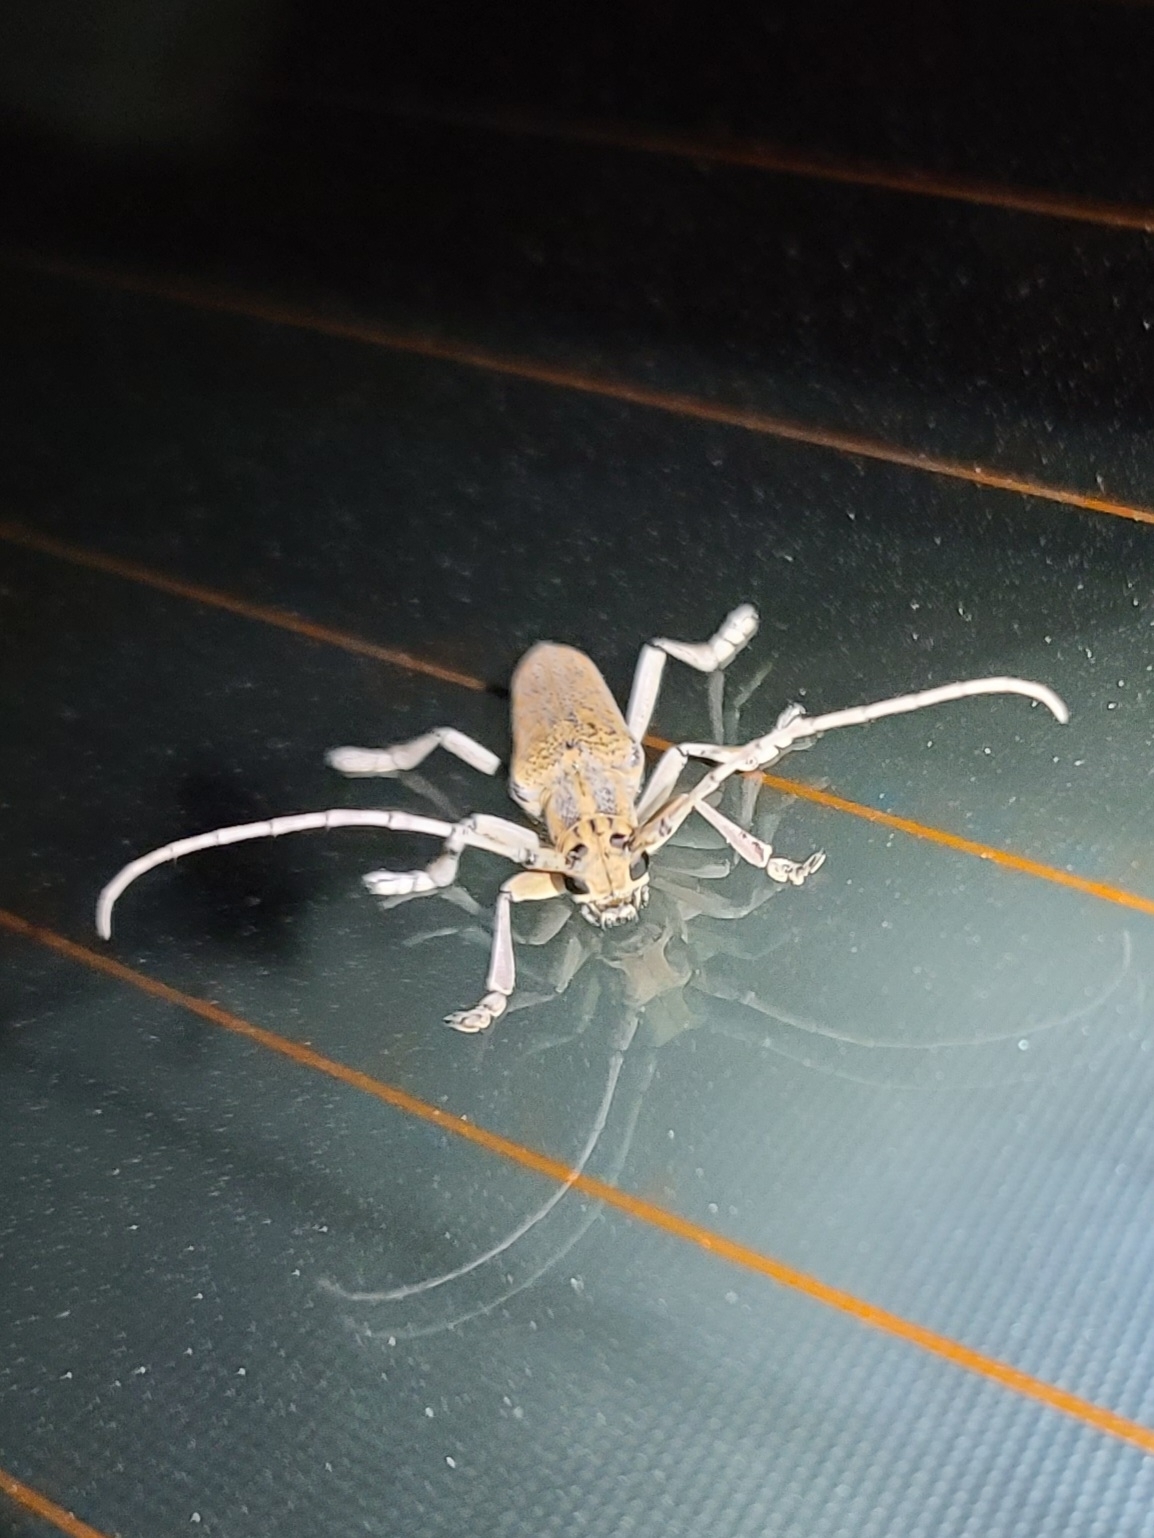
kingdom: Animalia
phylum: Arthropoda
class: Insecta
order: Coleoptera
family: Cerambycidae
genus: Saperda
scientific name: Saperda calcarata
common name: Poplar borer
